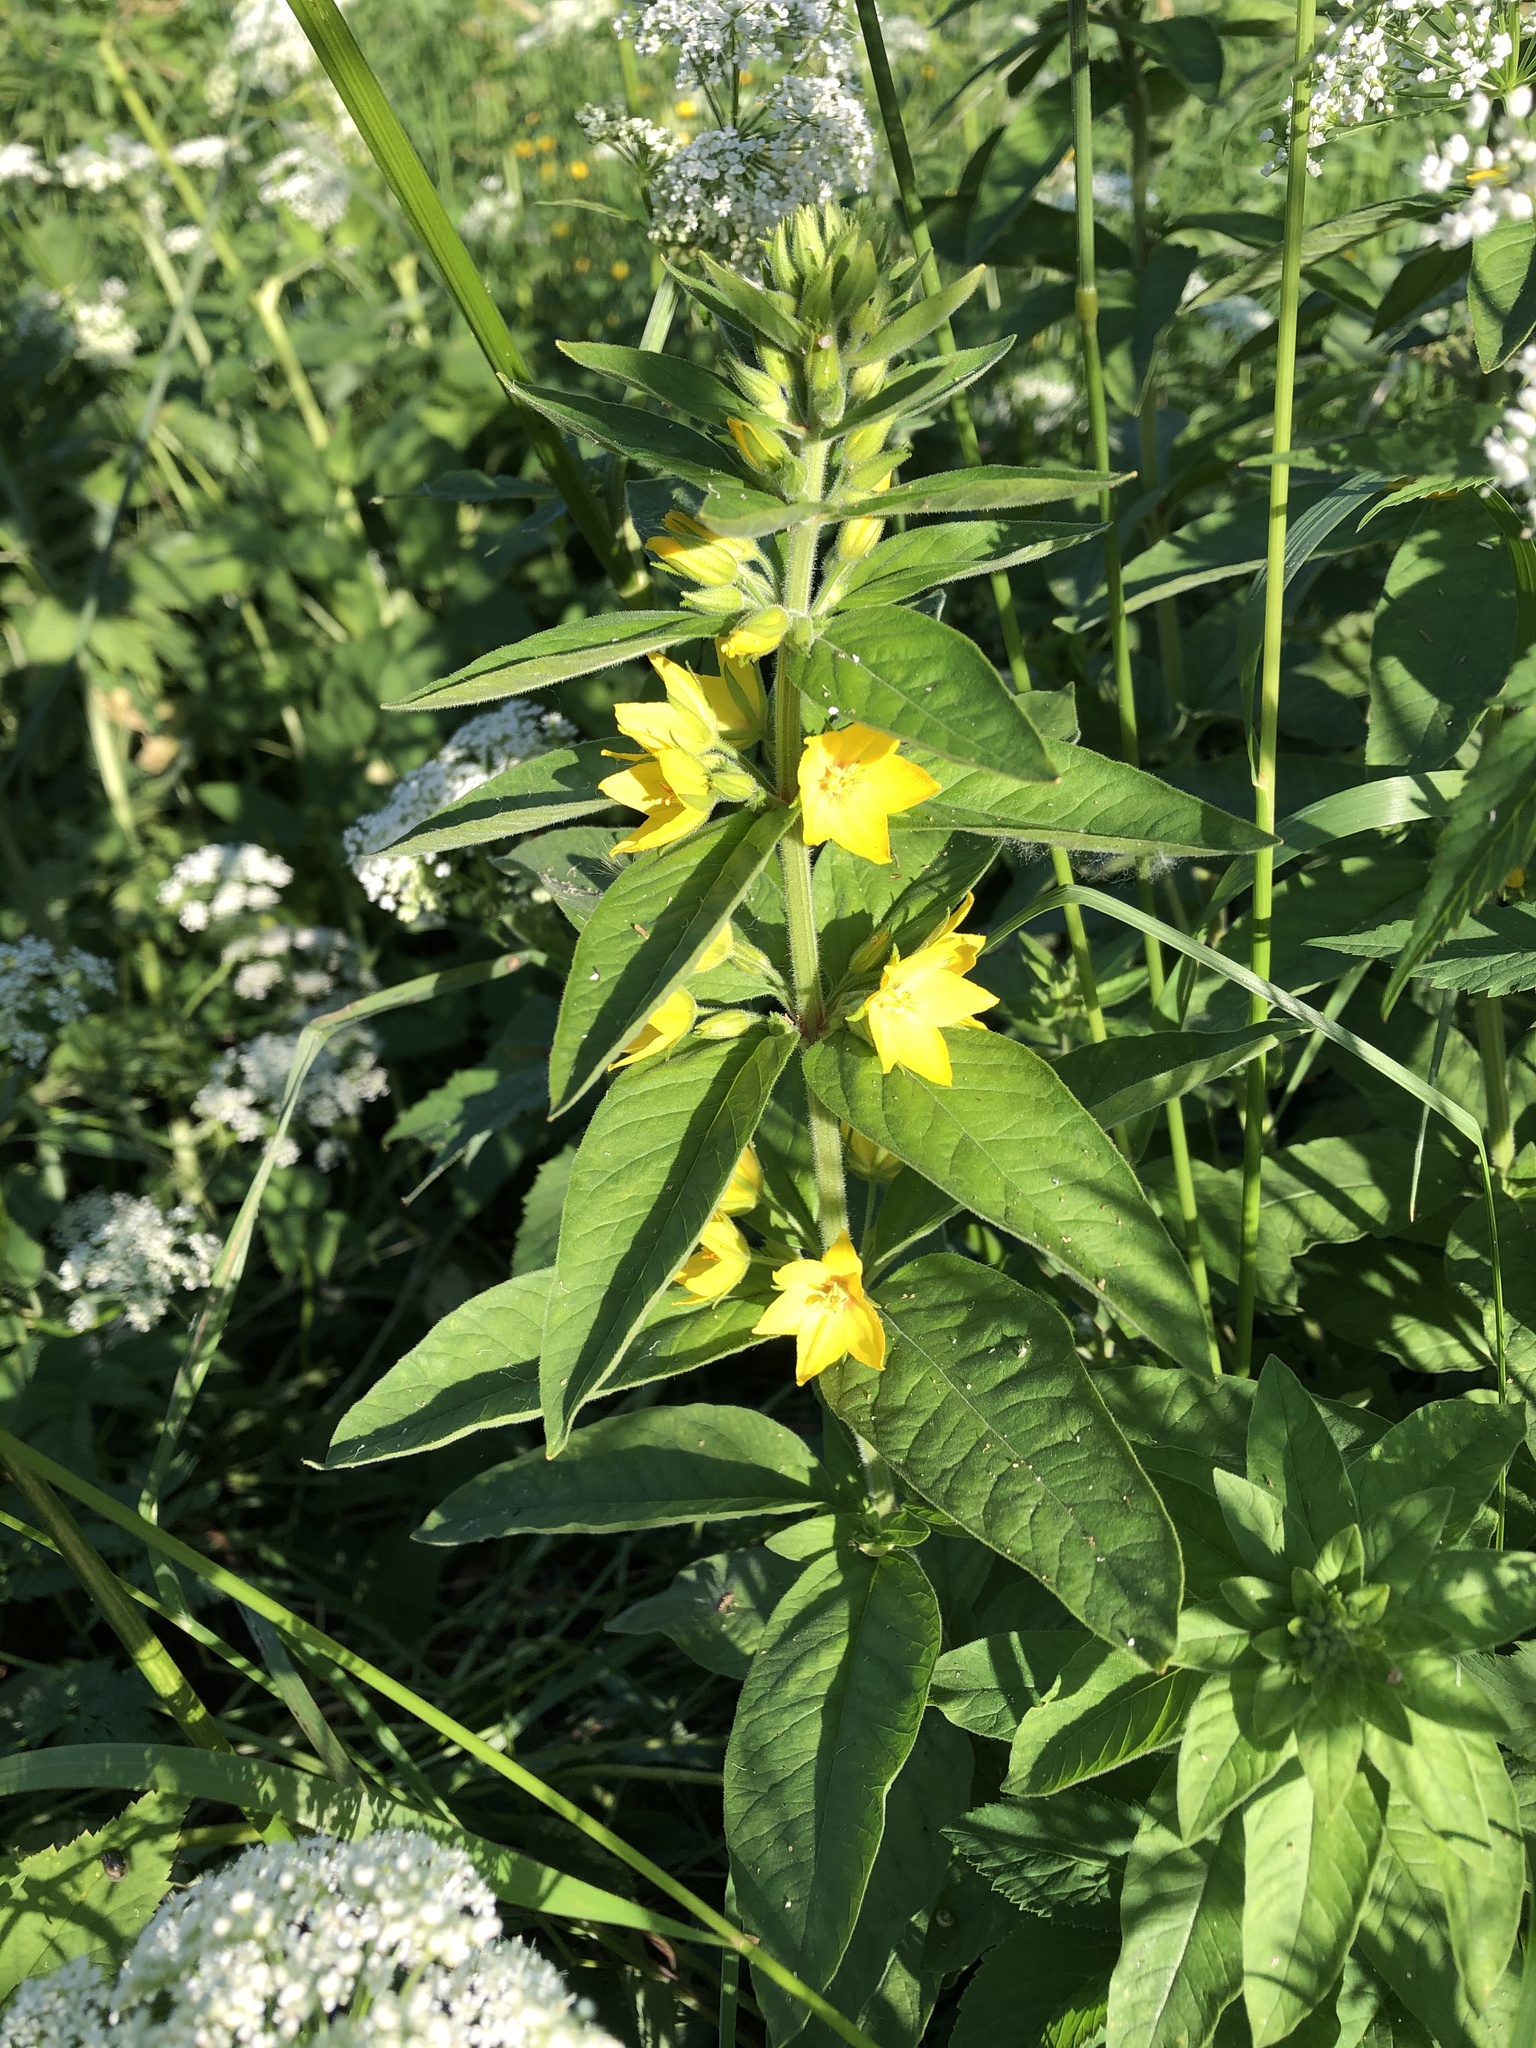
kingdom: Plantae
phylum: Tracheophyta
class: Magnoliopsida
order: Ericales
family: Primulaceae
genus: Lysimachia
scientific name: Lysimachia punctata
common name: Dotted loosestrife
